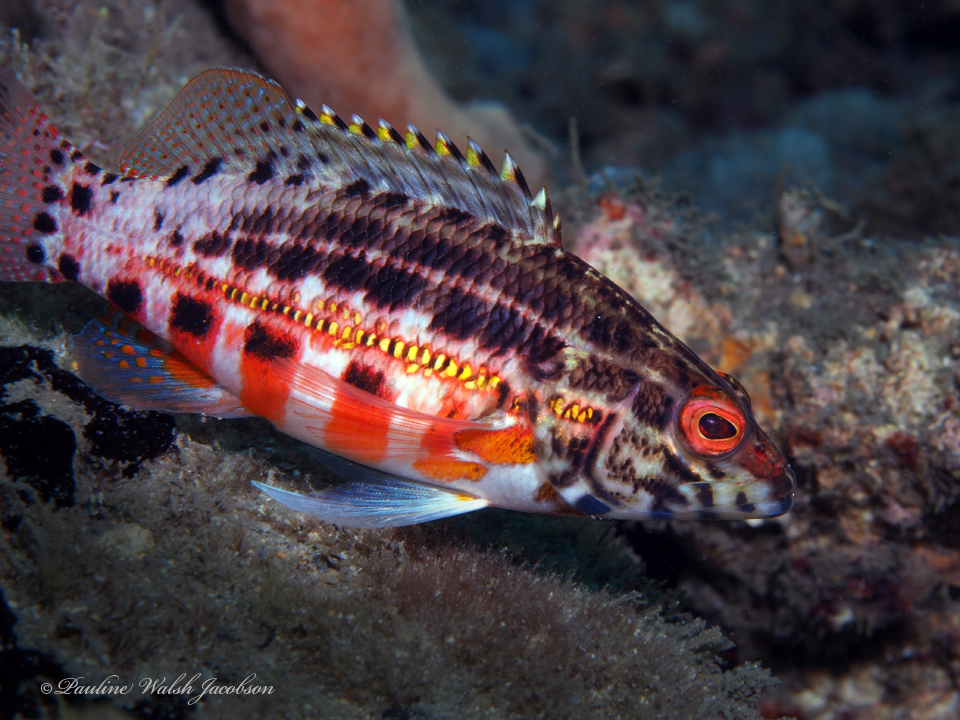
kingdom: Animalia
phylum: Chordata
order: Perciformes
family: Serranidae
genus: Serranus
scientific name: Serranus baldwini
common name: Lantern bass
